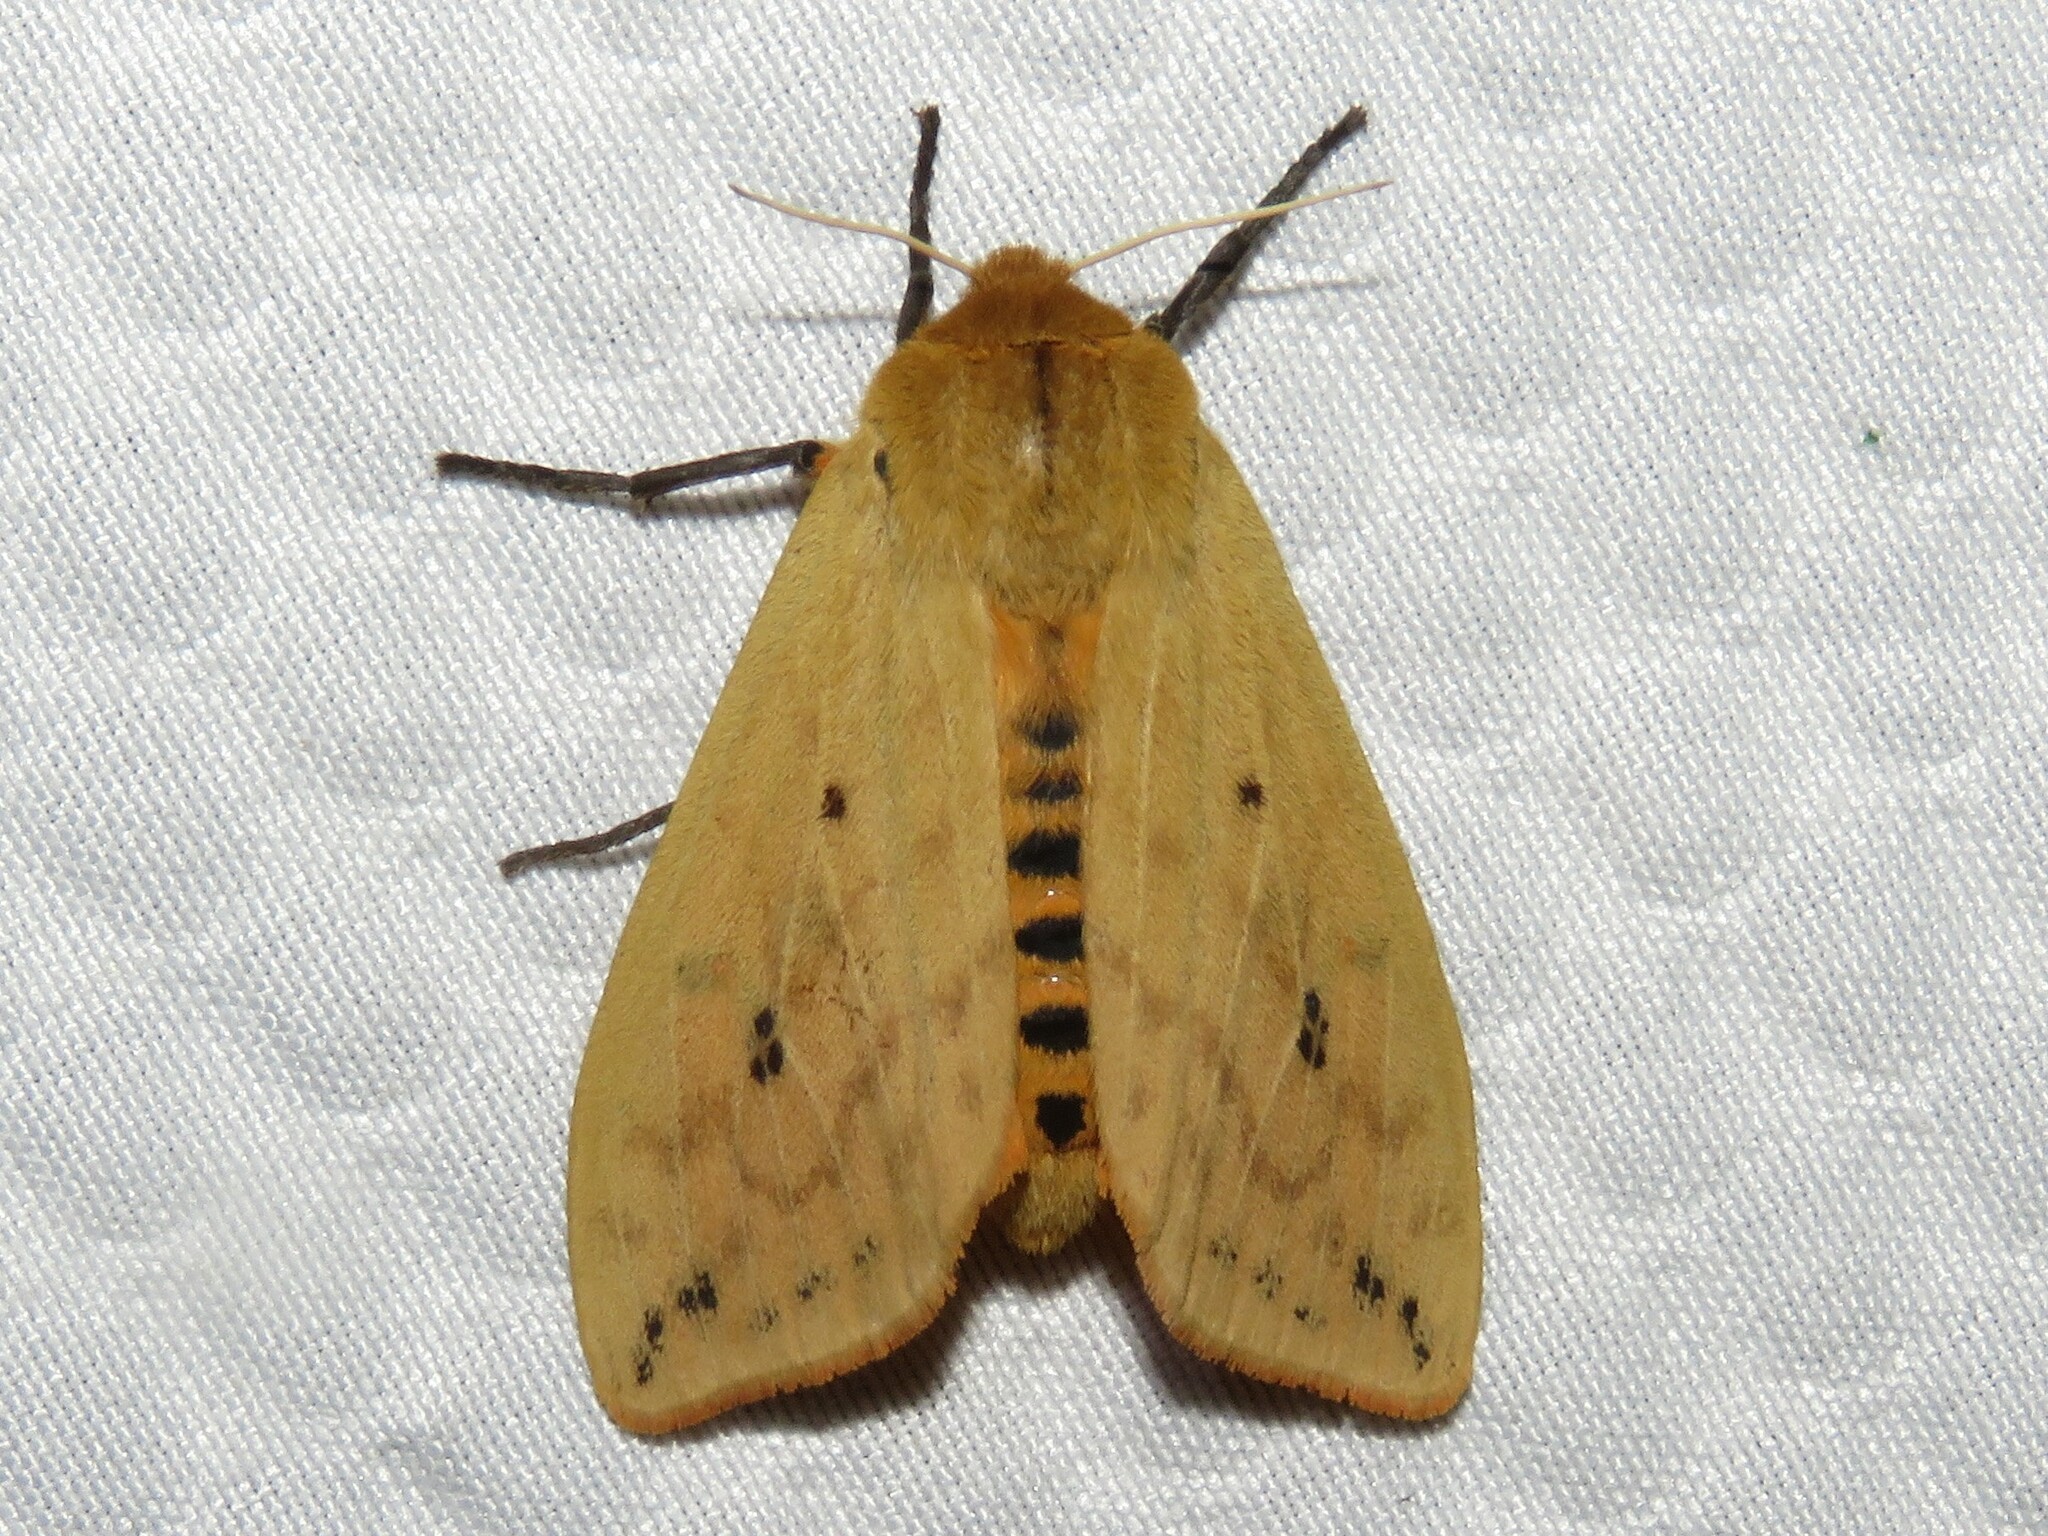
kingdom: Animalia
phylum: Arthropoda
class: Insecta
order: Lepidoptera
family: Erebidae
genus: Pyrrharctia
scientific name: Pyrrharctia isabella
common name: Isabella tiger moth
